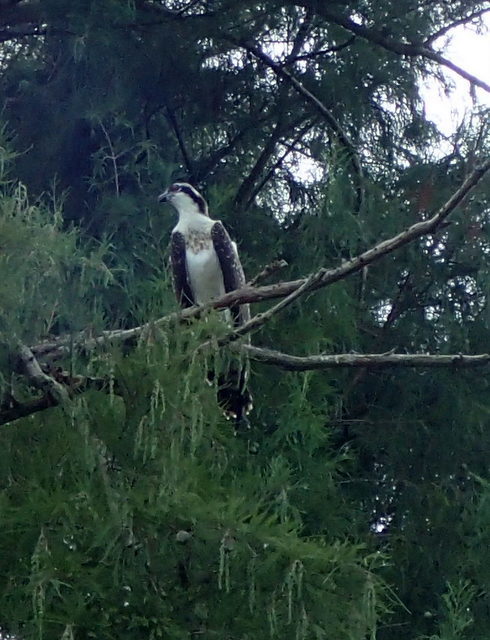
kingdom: Animalia
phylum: Chordata
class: Aves
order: Accipitriformes
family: Pandionidae
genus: Pandion
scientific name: Pandion haliaetus
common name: Osprey
